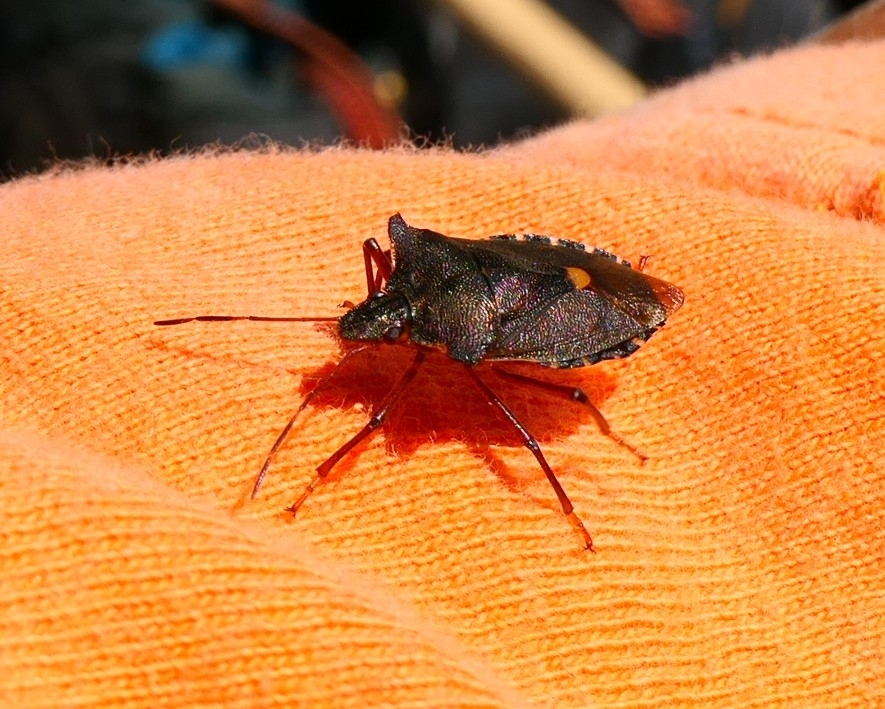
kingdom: Animalia
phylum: Arthropoda
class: Insecta
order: Hemiptera
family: Pentatomidae
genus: Pentatoma
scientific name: Pentatoma rufipes
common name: Forest bug
